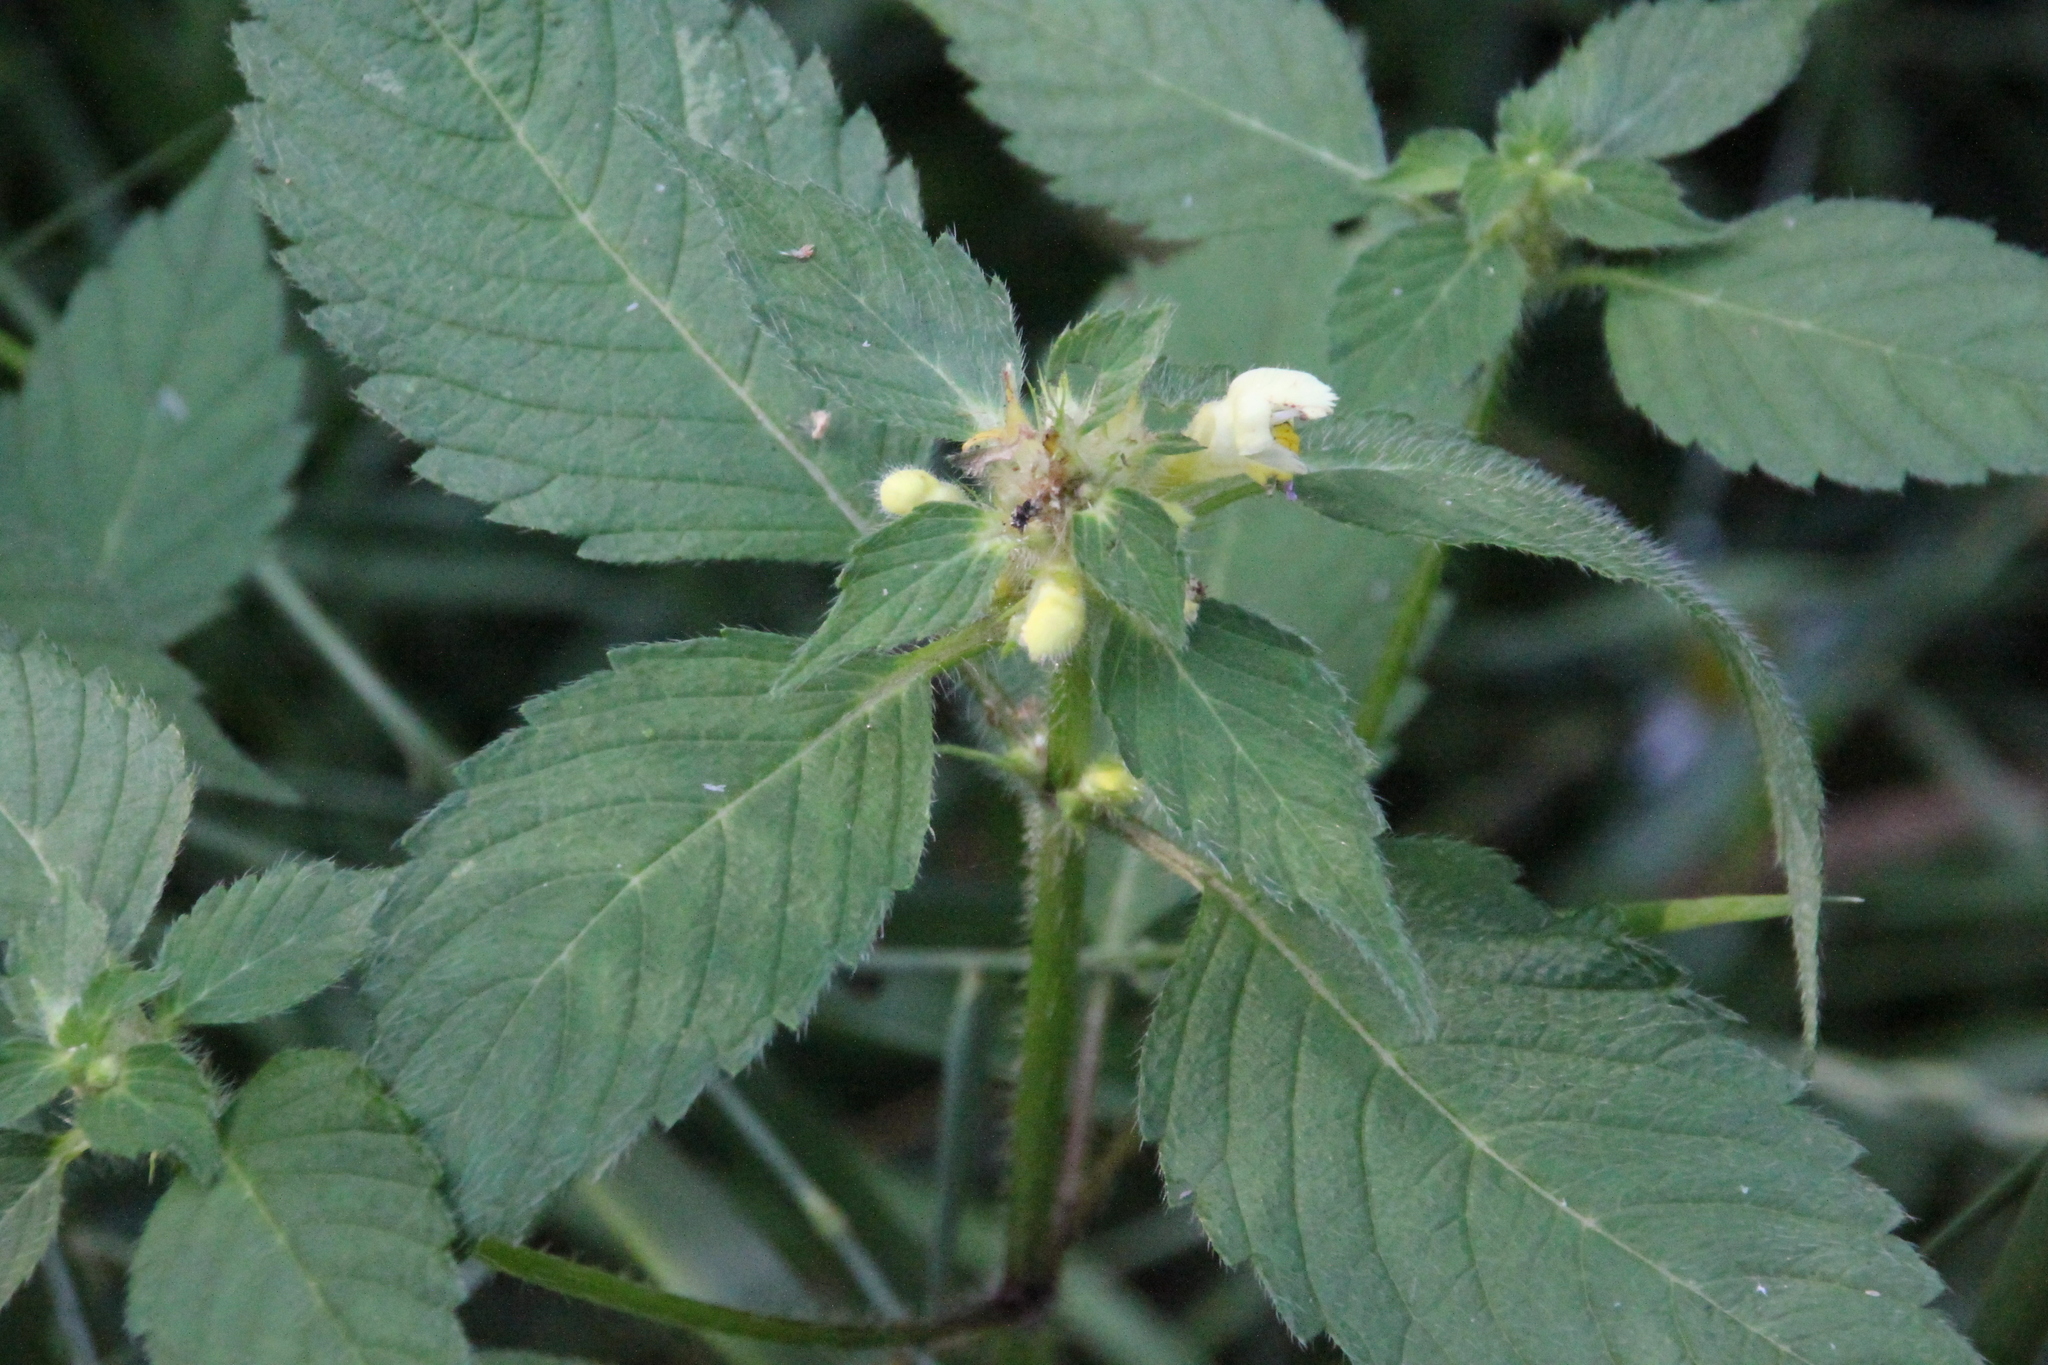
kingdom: Plantae
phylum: Tracheophyta
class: Magnoliopsida
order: Lamiales
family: Lamiaceae
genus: Galeopsis
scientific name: Galeopsis speciosa
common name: Large-flowered hemp-nettle
